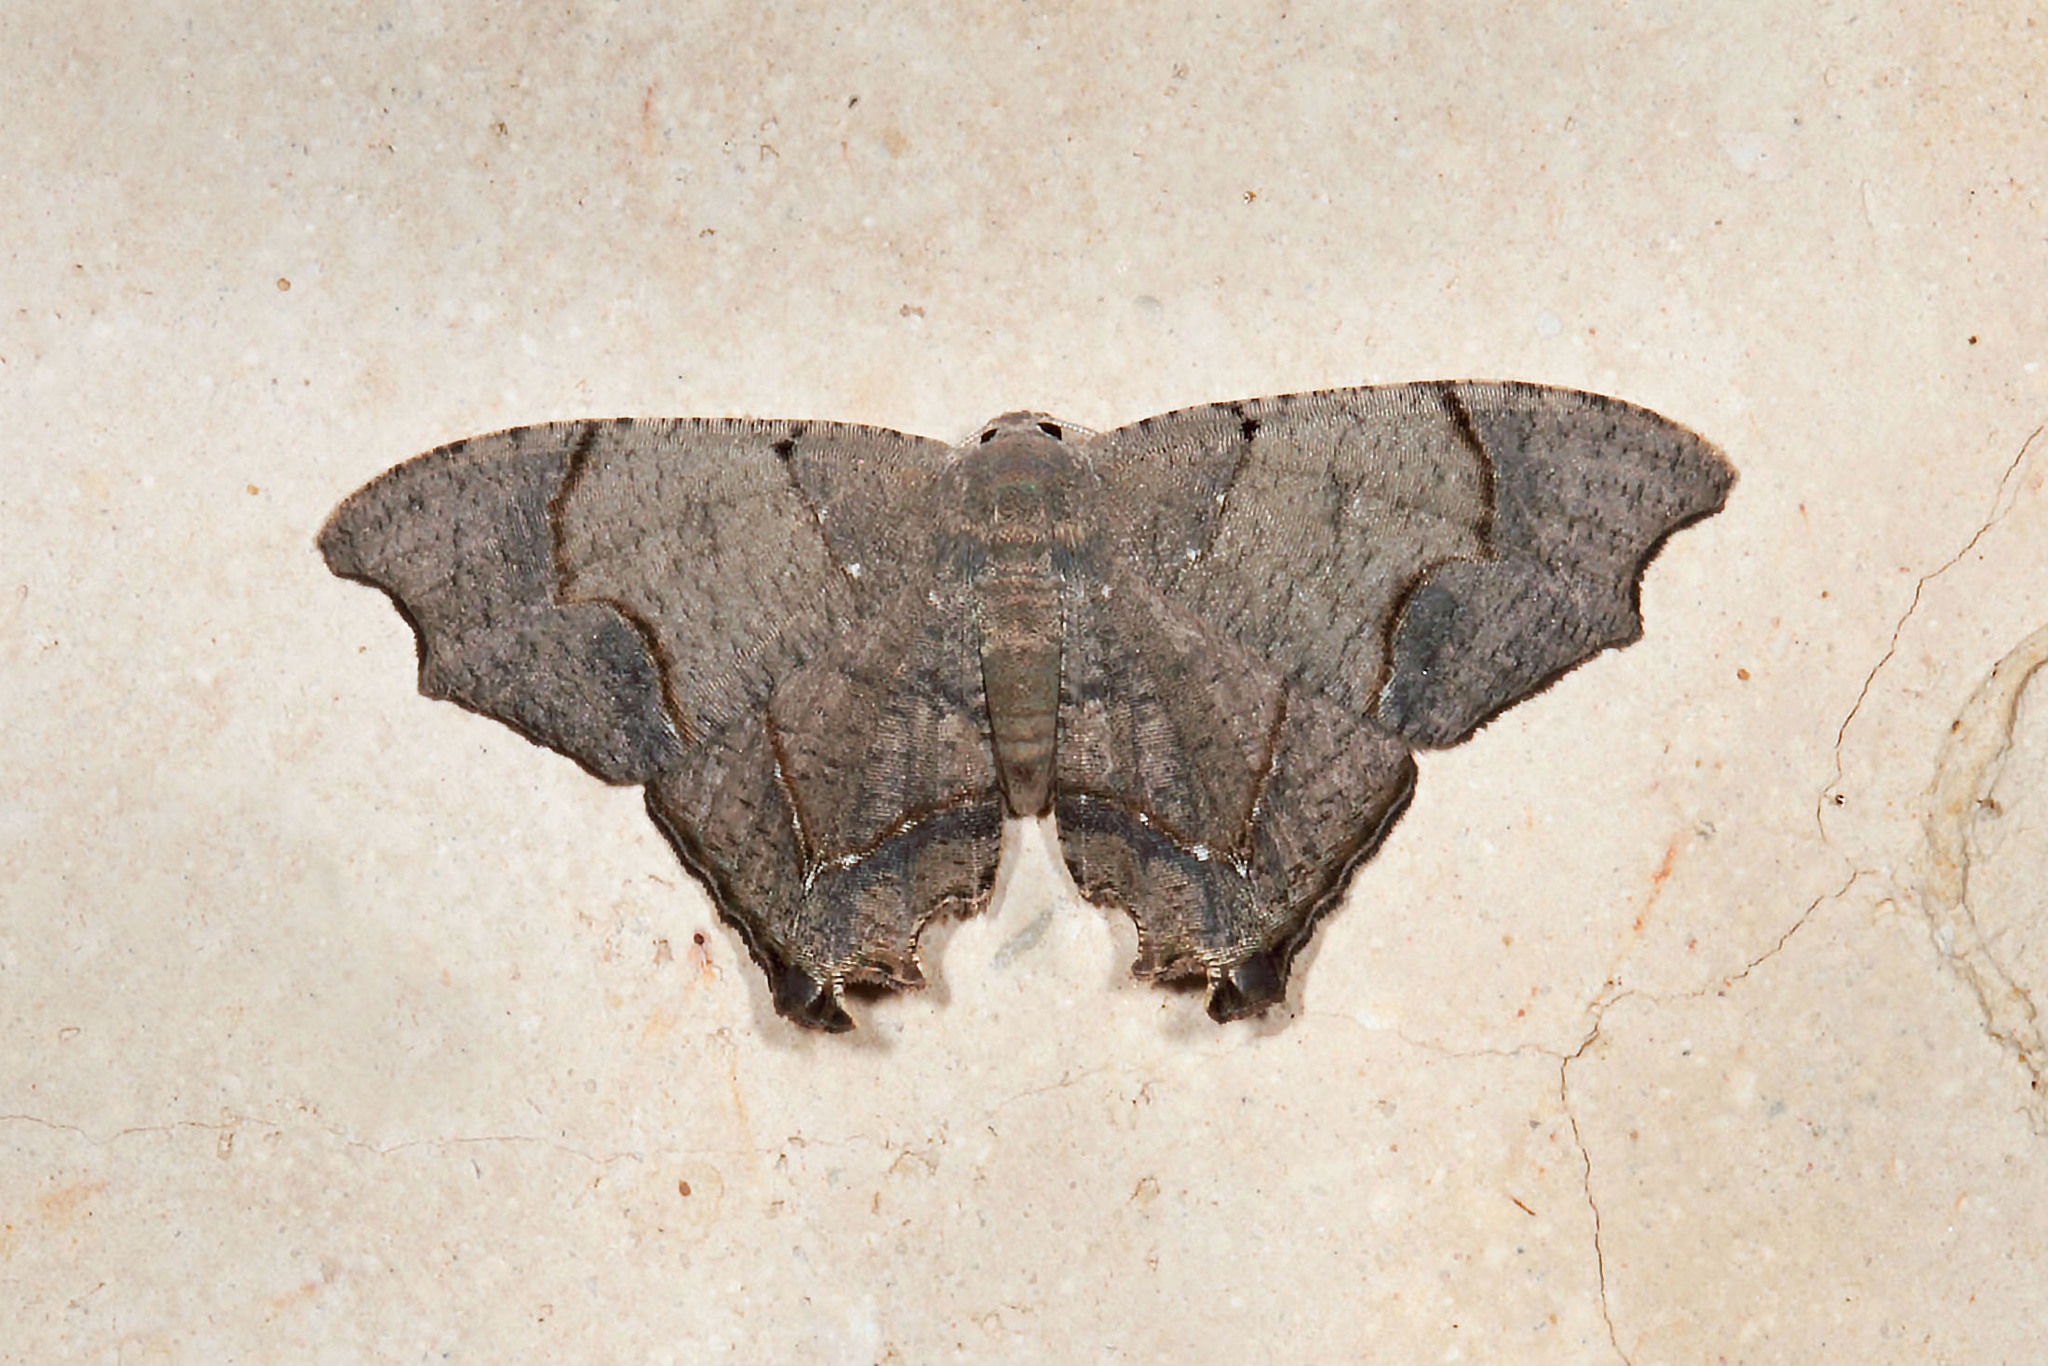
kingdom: Animalia
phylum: Arthropoda
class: Insecta
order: Lepidoptera
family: Uraniidae
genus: Trotorhombia
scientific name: Trotorhombia metachromata
